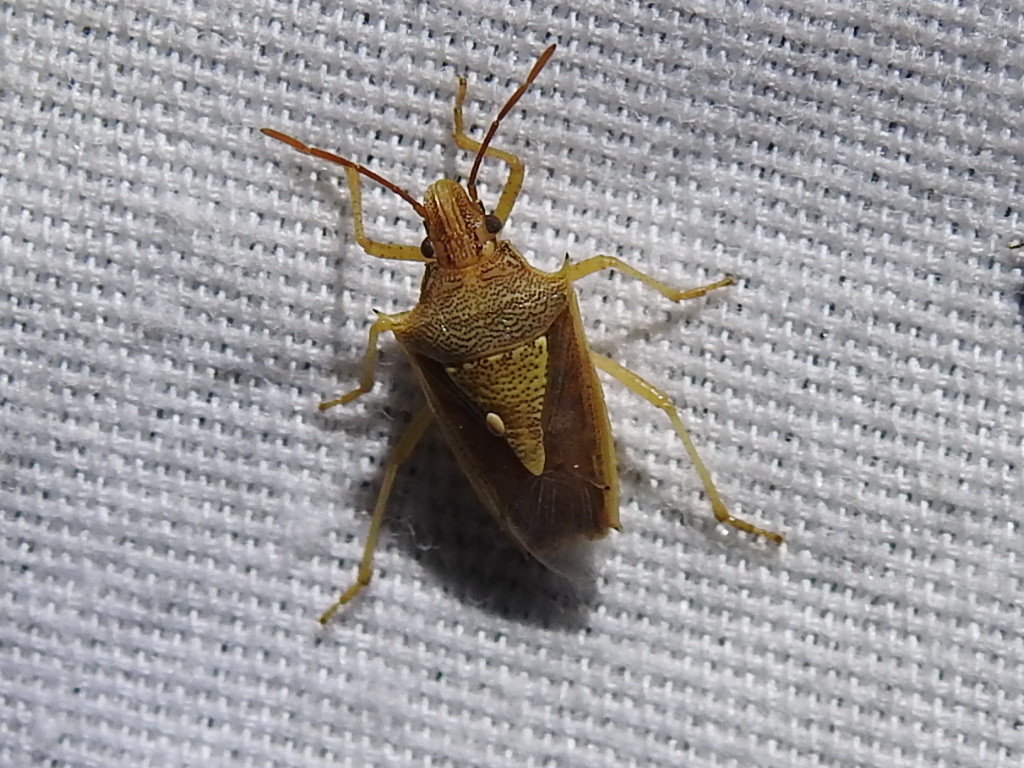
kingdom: Animalia
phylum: Arthropoda
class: Insecta
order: Hemiptera
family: Pentatomidae
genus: Oebalus
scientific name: Oebalus pugnax
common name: Rice stink bug
